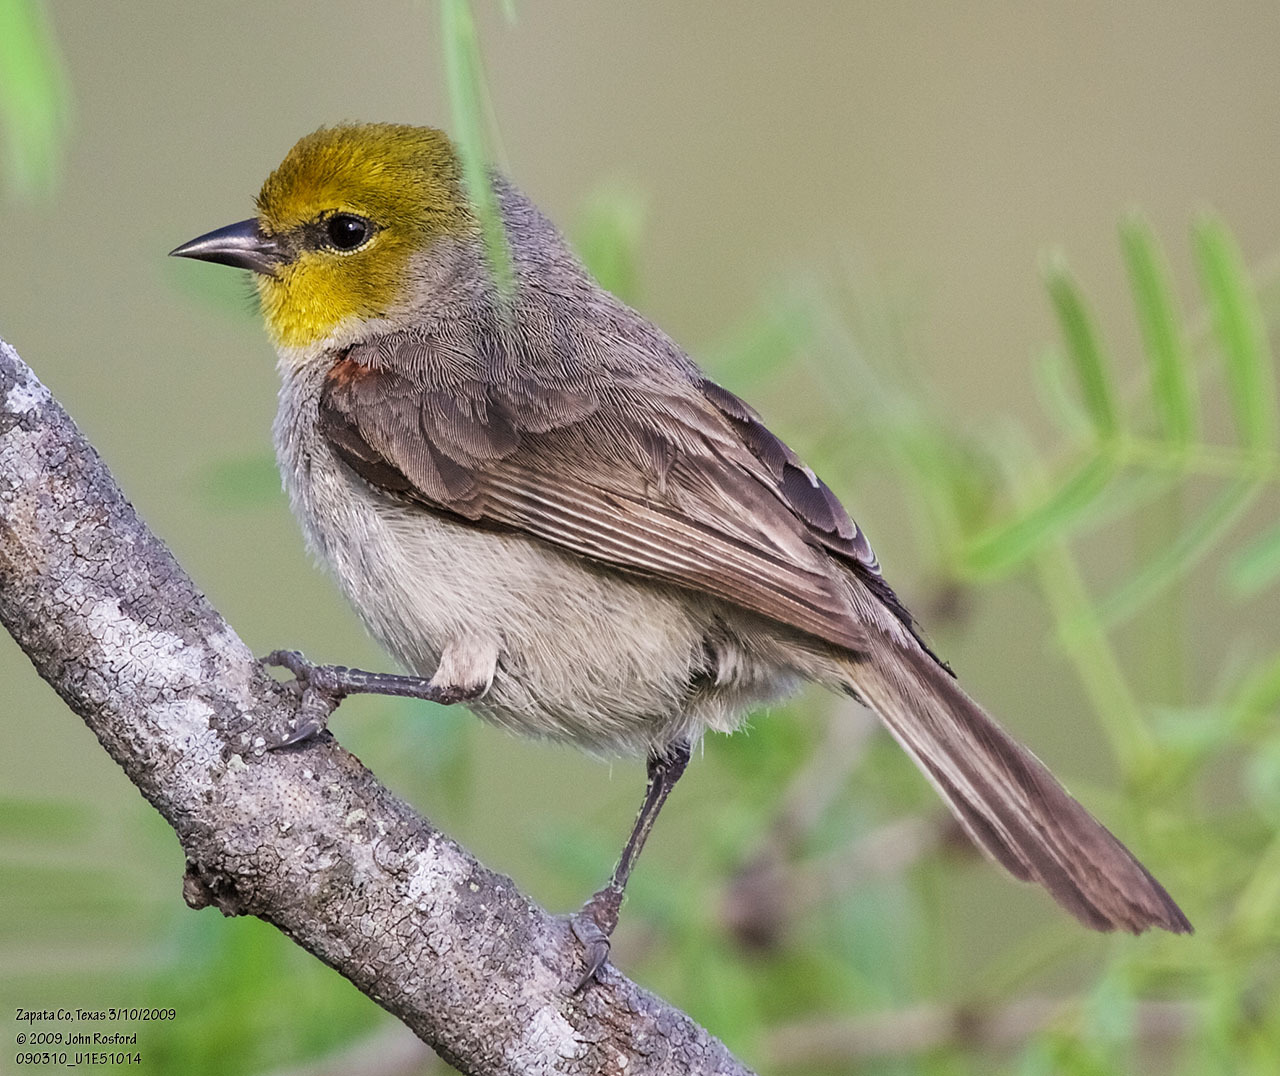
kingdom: Animalia
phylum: Chordata
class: Aves
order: Passeriformes
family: Remizidae
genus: Auriparus
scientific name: Auriparus flaviceps
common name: Verdin
